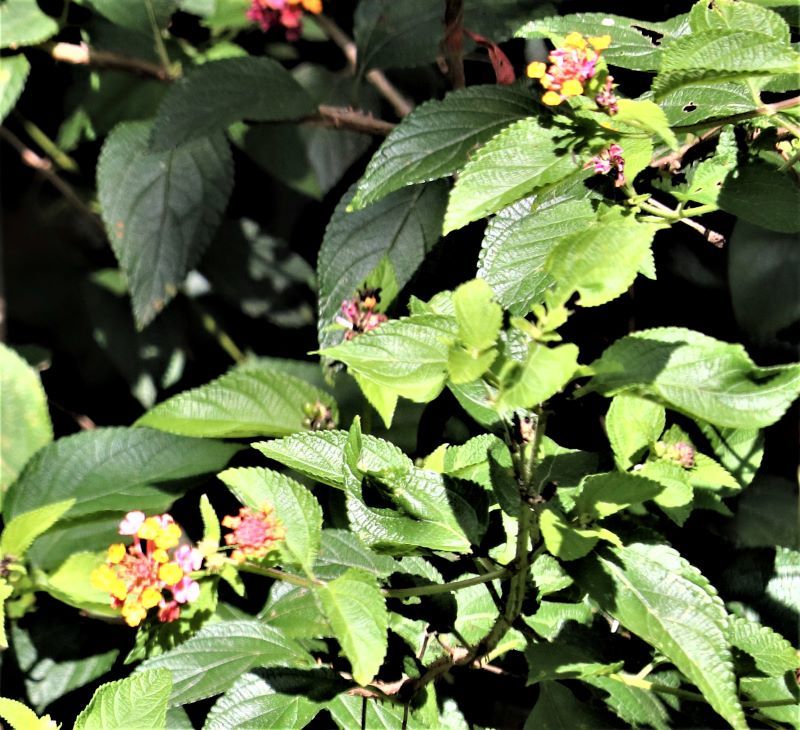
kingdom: Plantae
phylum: Tracheophyta
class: Magnoliopsida
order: Lamiales
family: Verbenaceae
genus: Lantana
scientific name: Lantana camara
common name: Lantana
